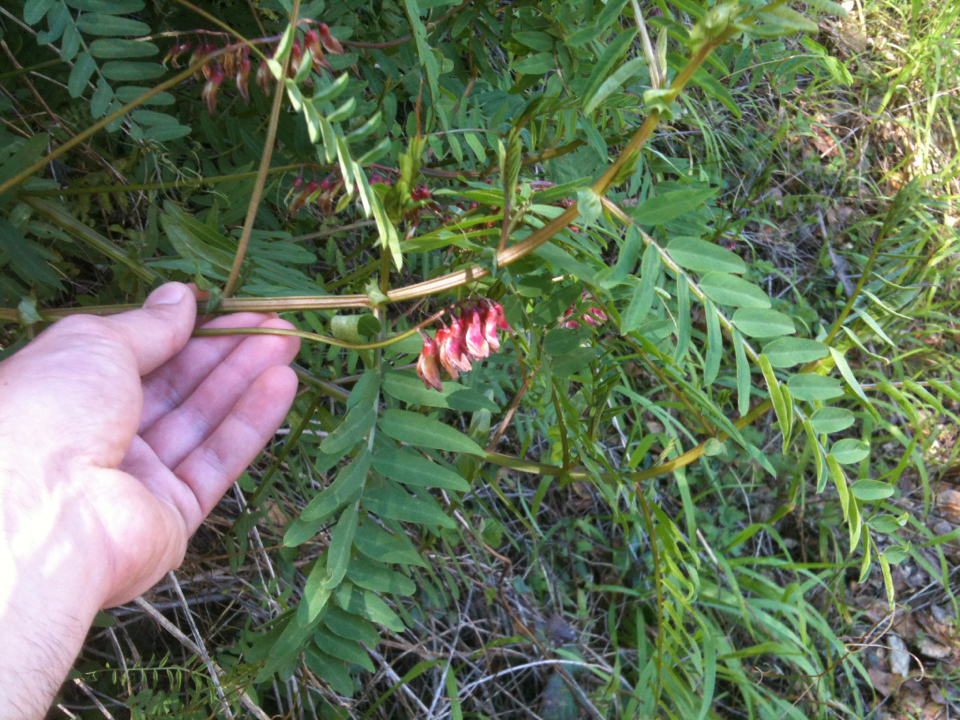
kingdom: Plantae
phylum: Tracheophyta
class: Magnoliopsida
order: Fabales
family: Fabaceae
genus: Vicia
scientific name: Vicia
